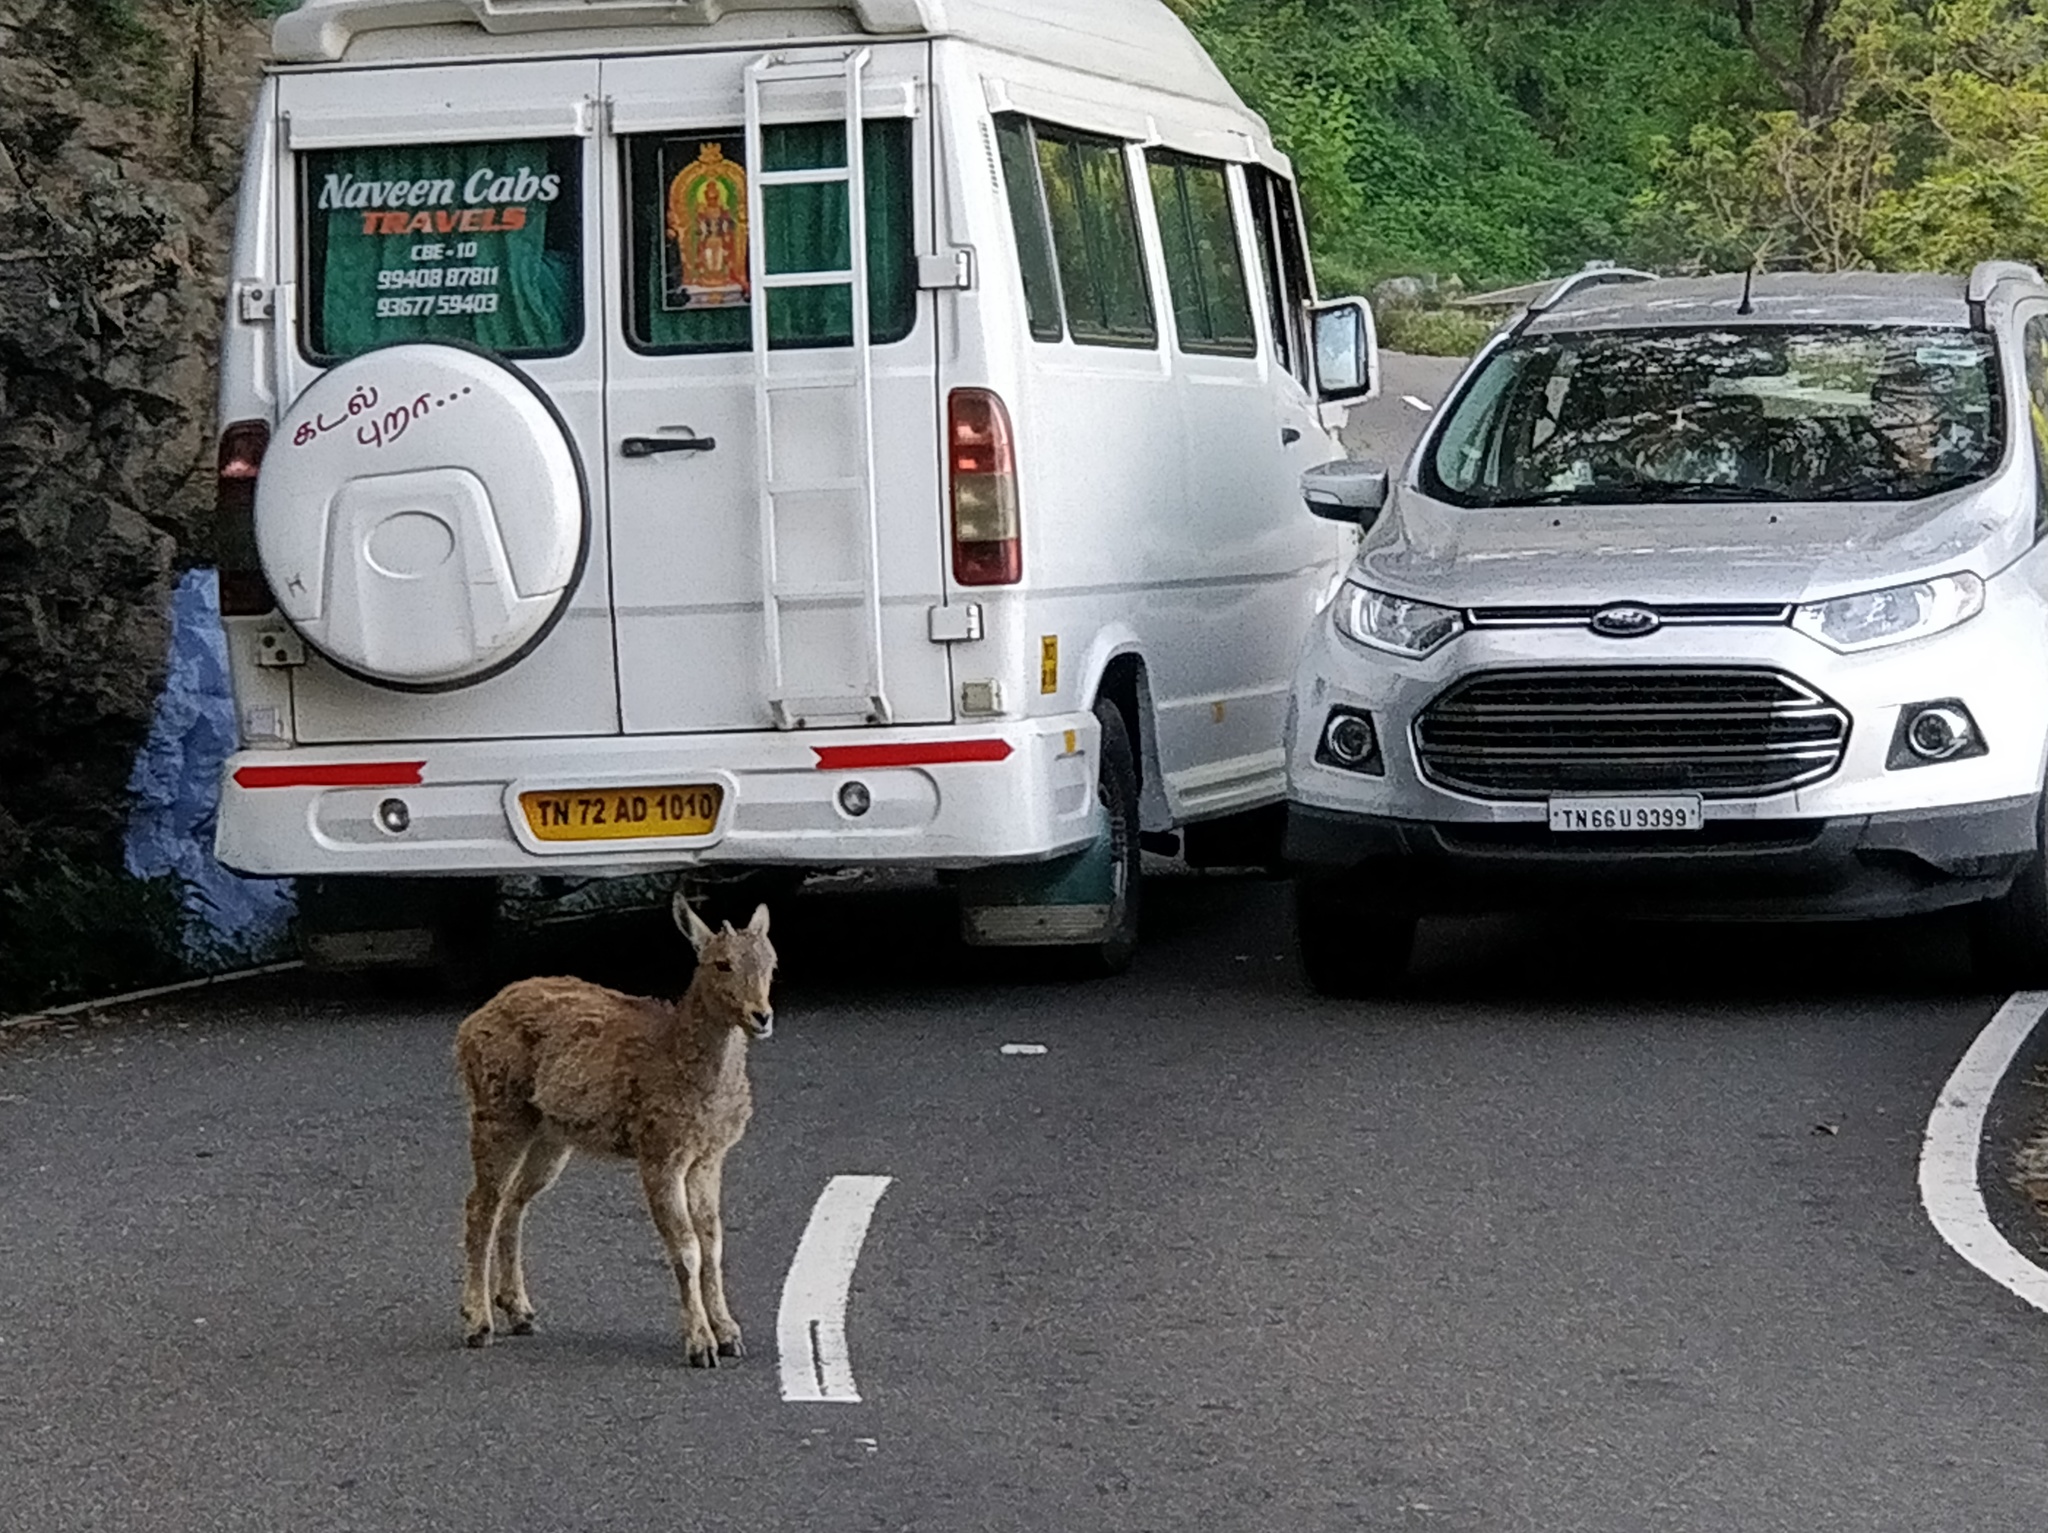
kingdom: Animalia
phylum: Chordata
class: Mammalia
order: Artiodactyla
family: Bovidae
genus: Hemitragus
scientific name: Hemitragus hylocrius
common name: Nilgiri tahr
